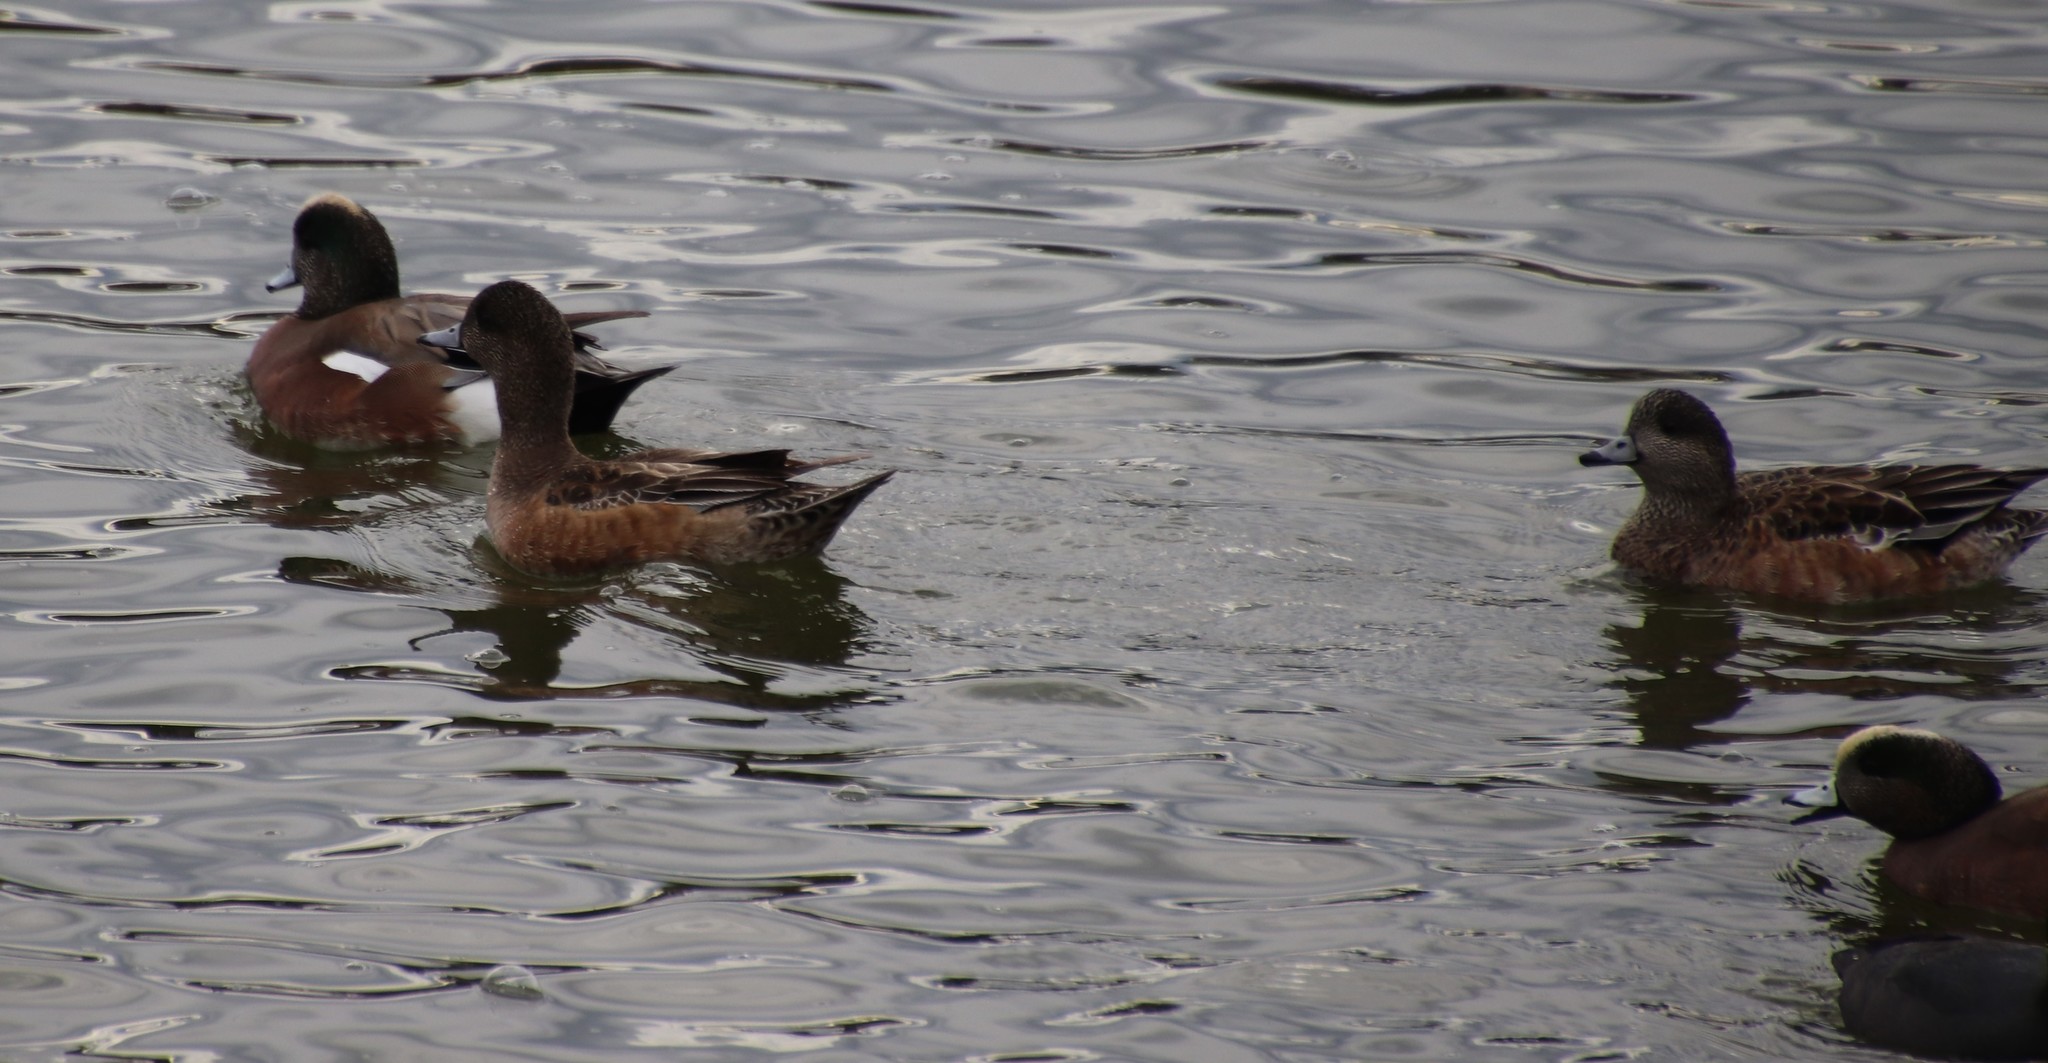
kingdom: Animalia
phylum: Chordata
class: Aves
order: Anseriformes
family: Anatidae
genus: Mareca
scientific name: Mareca americana
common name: American wigeon
